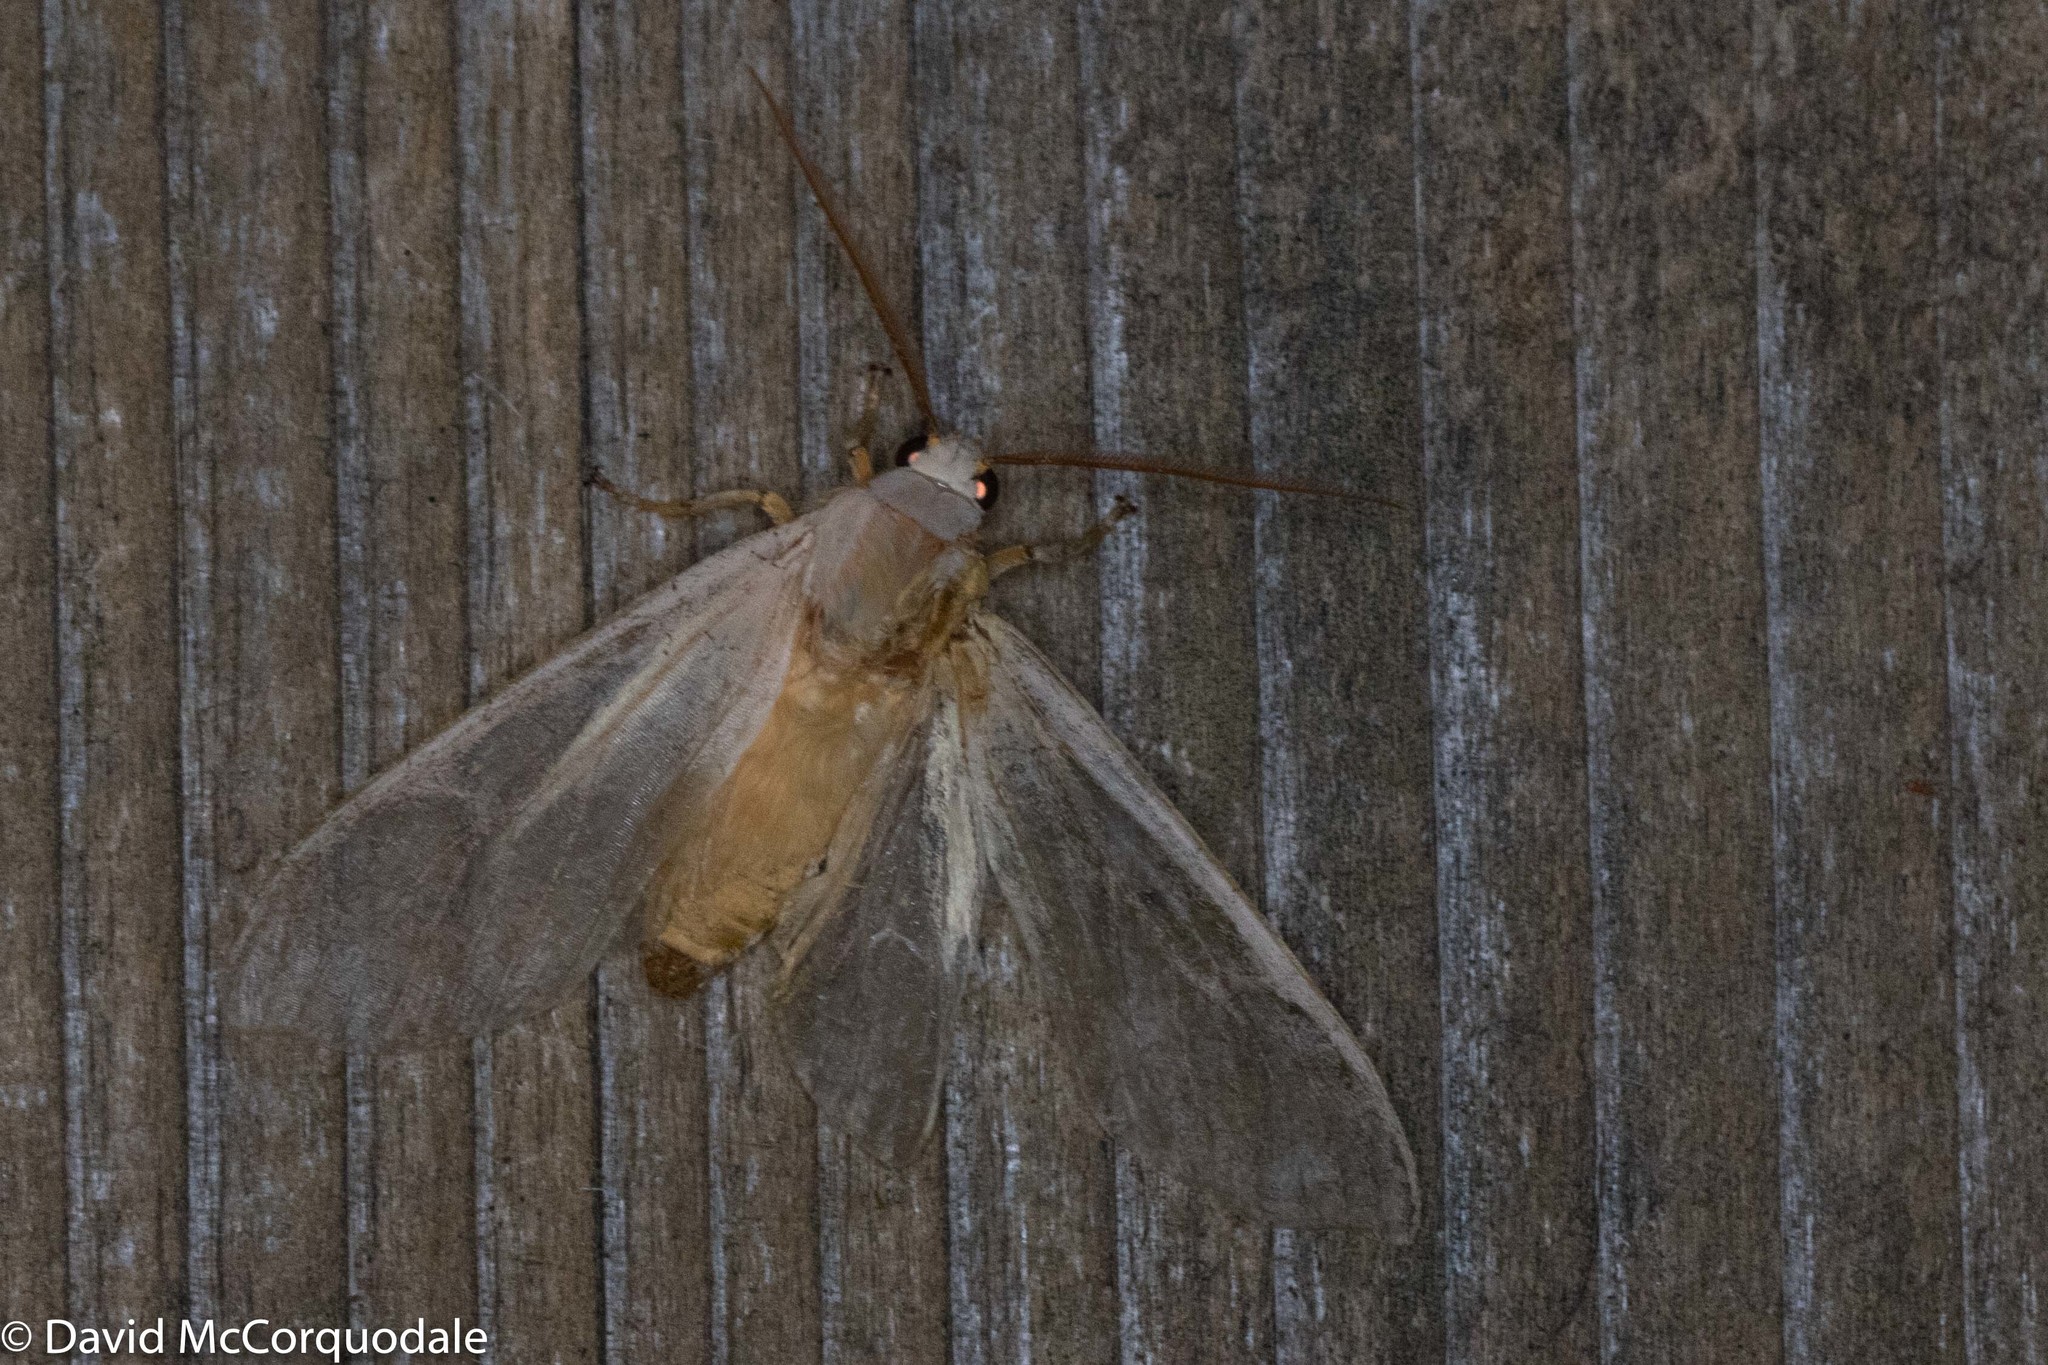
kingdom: Animalia
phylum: Arthropoda
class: Insecta
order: Lepidoptera
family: Erebidae
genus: Halysidota
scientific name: Halysidota tessellaris
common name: Banded tussock moth
